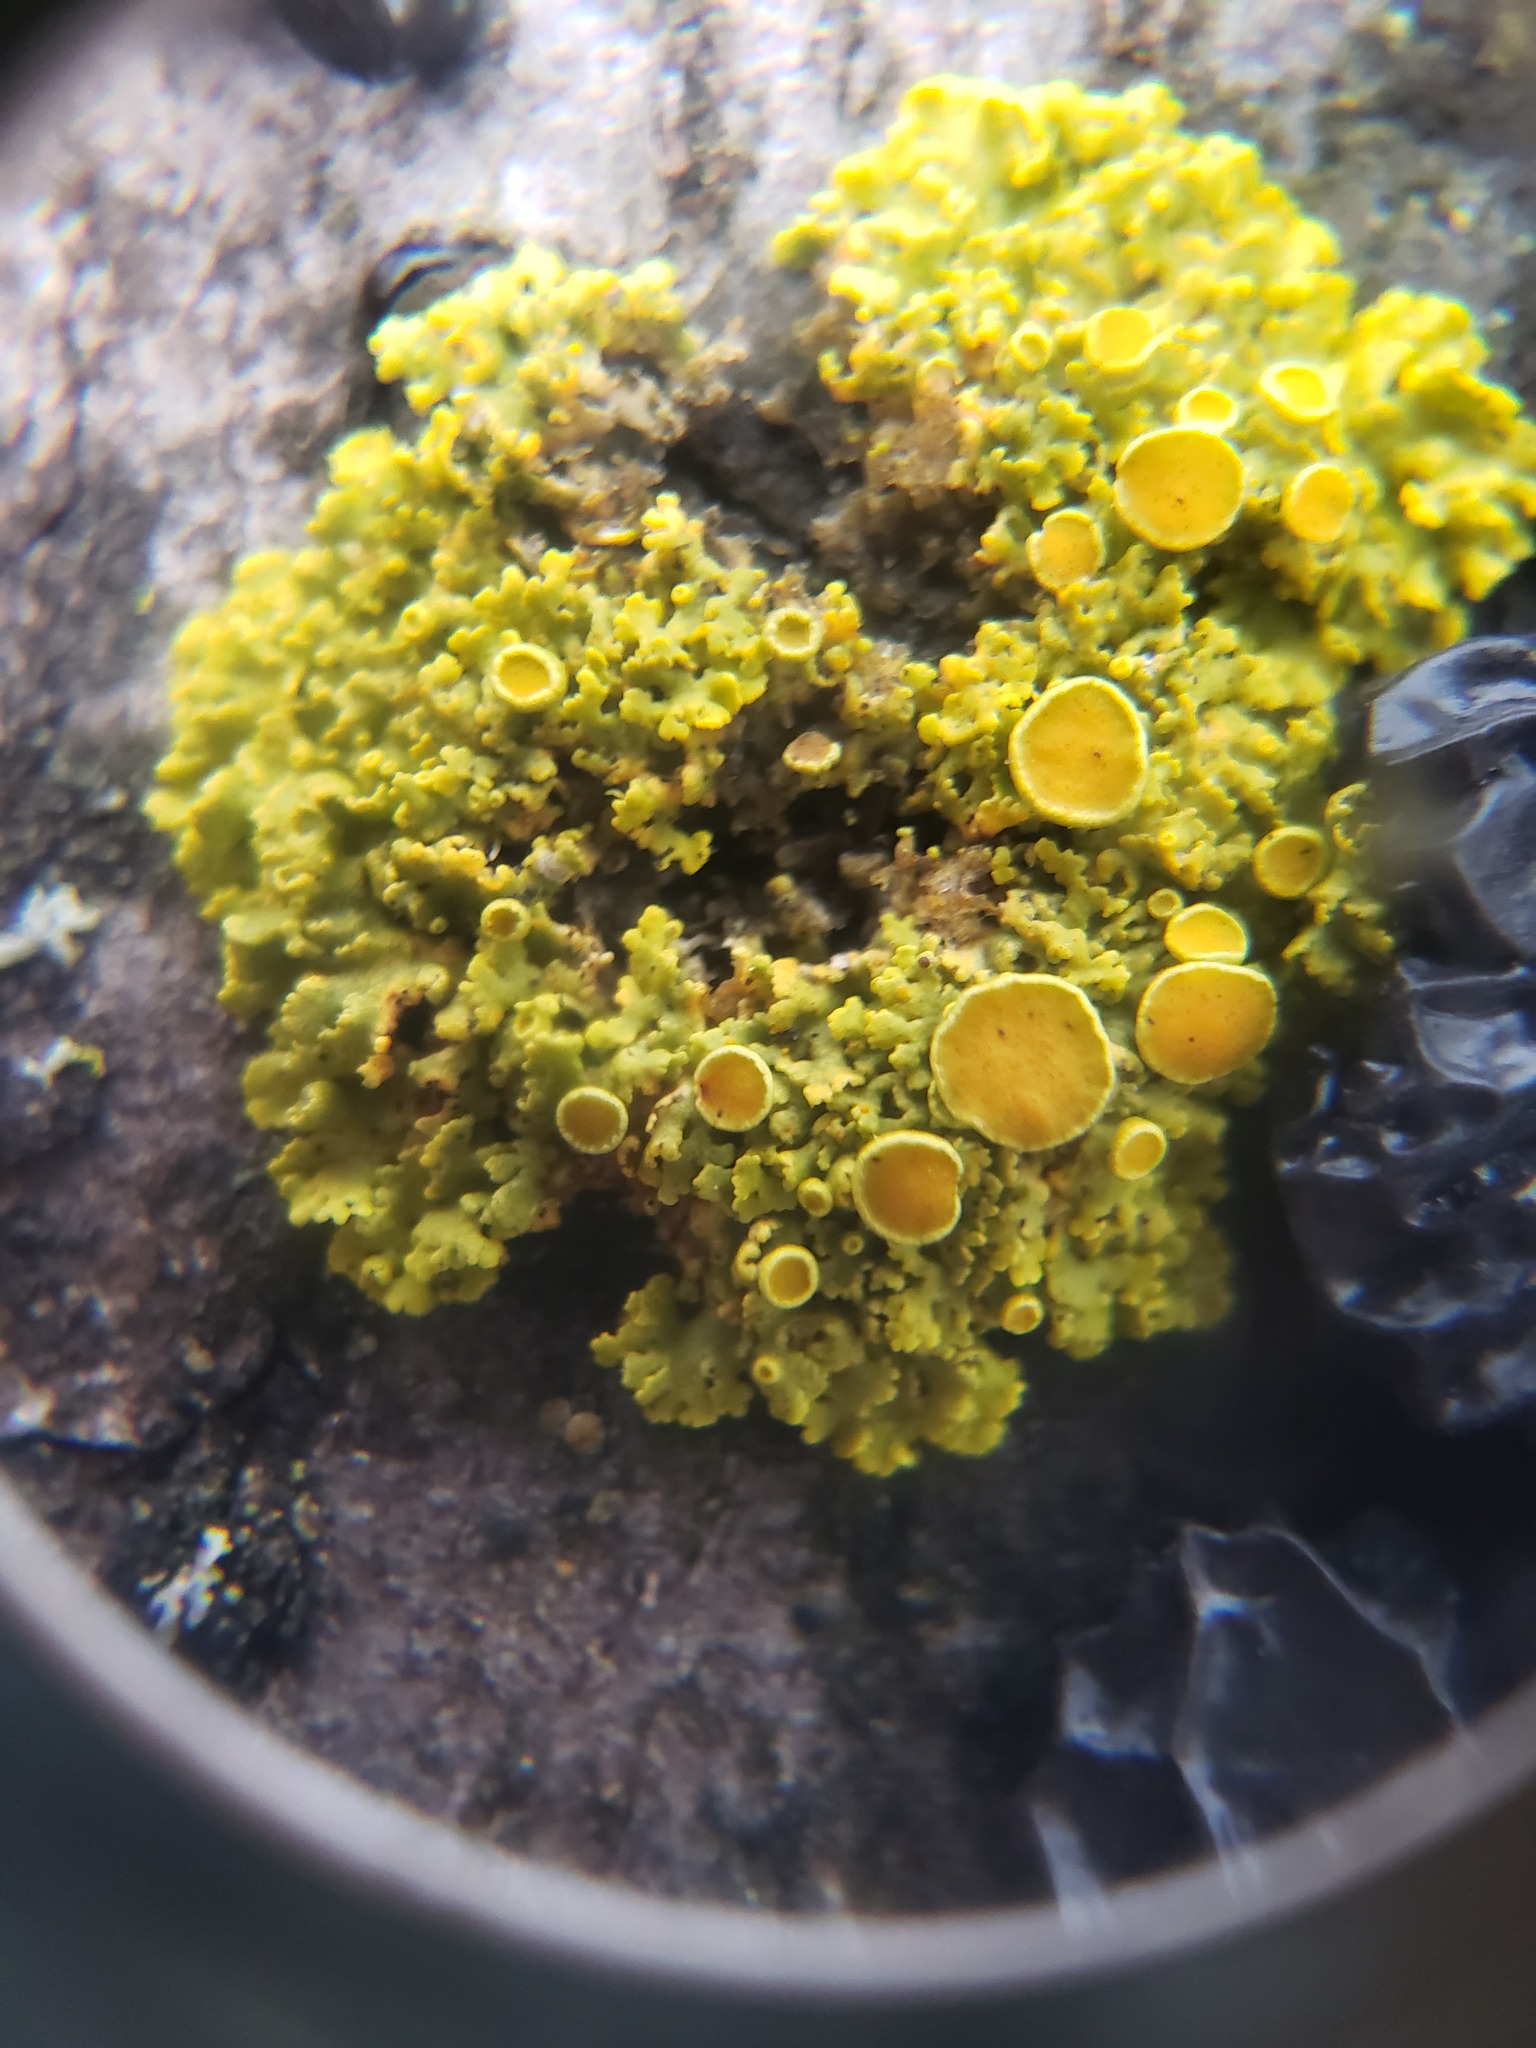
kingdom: Fungi
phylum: Ascomycota
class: Lecanoromycetes
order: Teloschistales
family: Teloschistaceae
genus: Gallowayella
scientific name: Gallowayella hasseana
